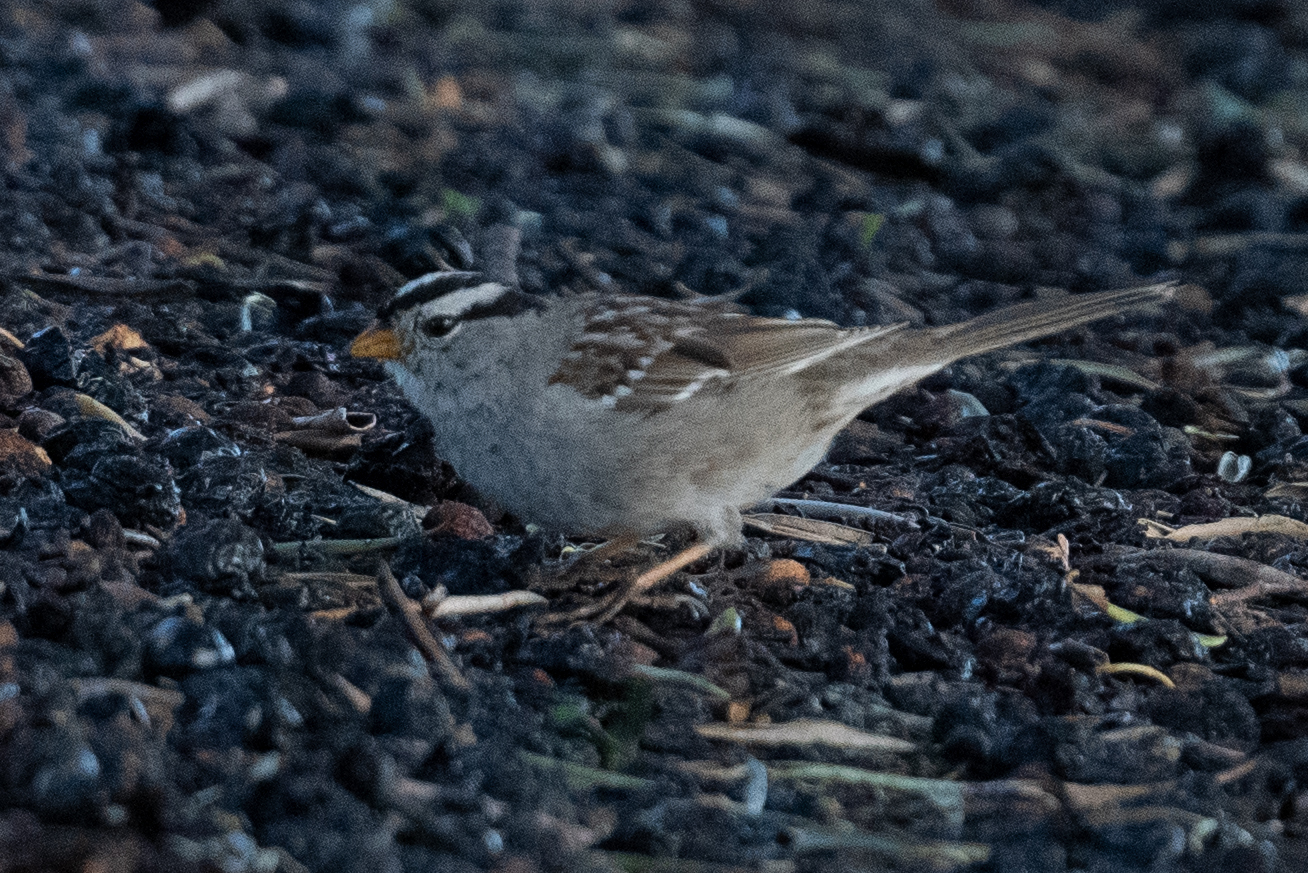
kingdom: Animalia
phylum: Chordata
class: Aves
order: Passeriformes
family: Passerellidae
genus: Zonotrichia
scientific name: Zonotrichia leucophrys
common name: White-crowned sparrow
